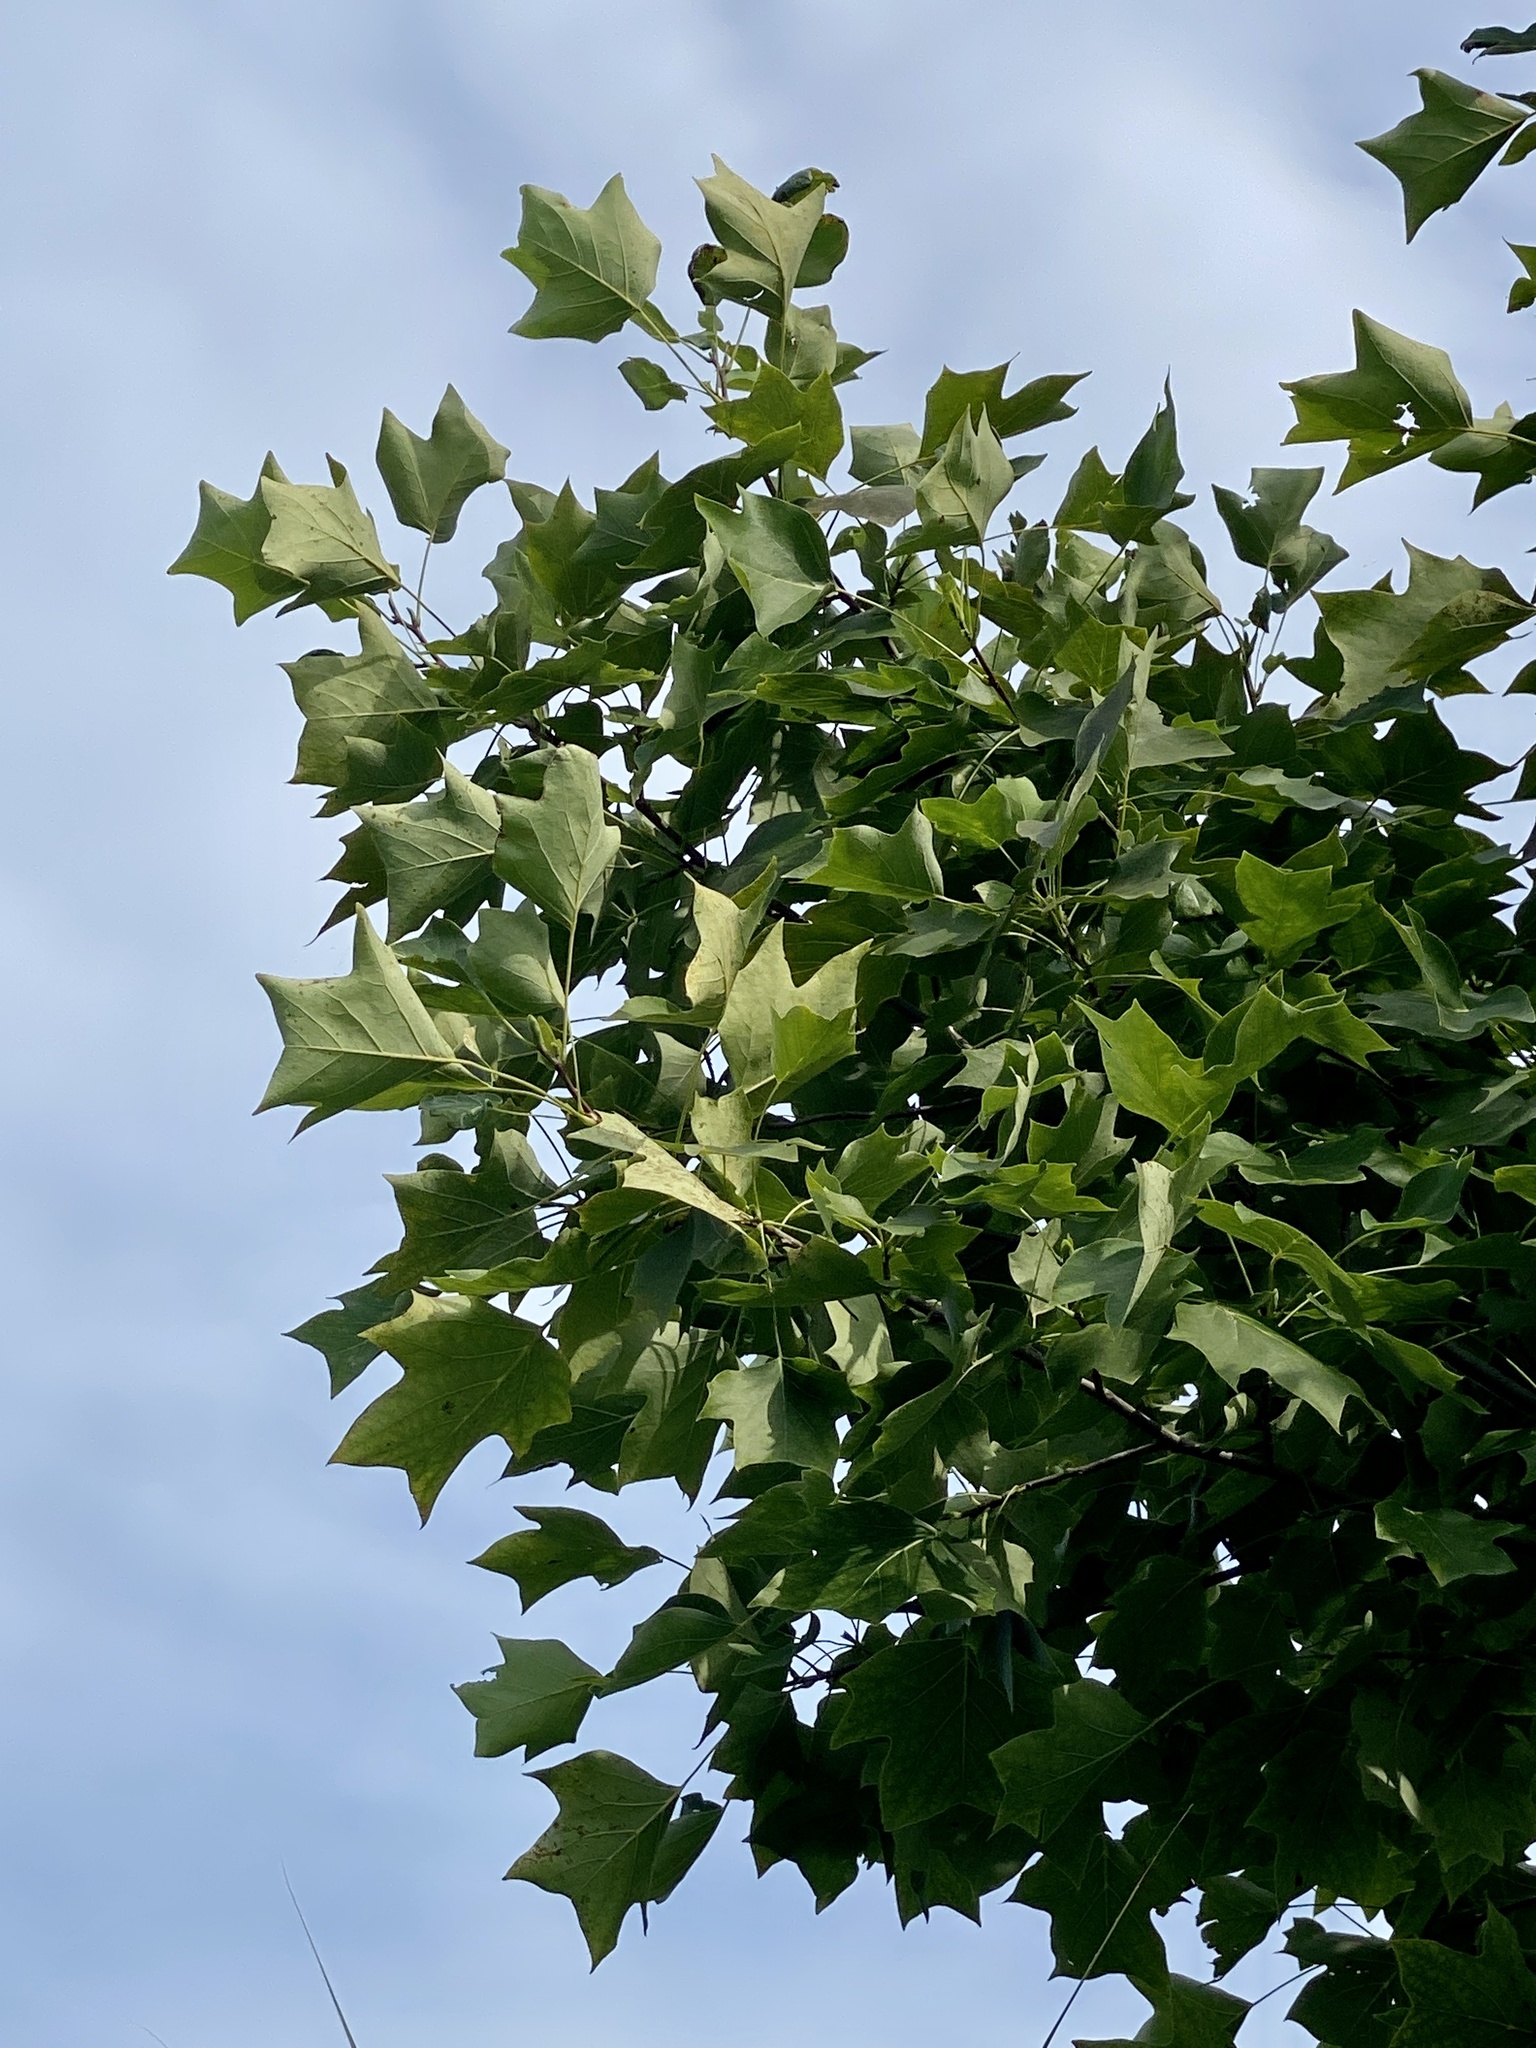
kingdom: Plantae
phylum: Tracheophyta
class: Magnoliopsida
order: Magnoliales
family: Magnoliaceae
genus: Liriodendron
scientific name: Liriodendron tulipifera
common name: Tulip tree
